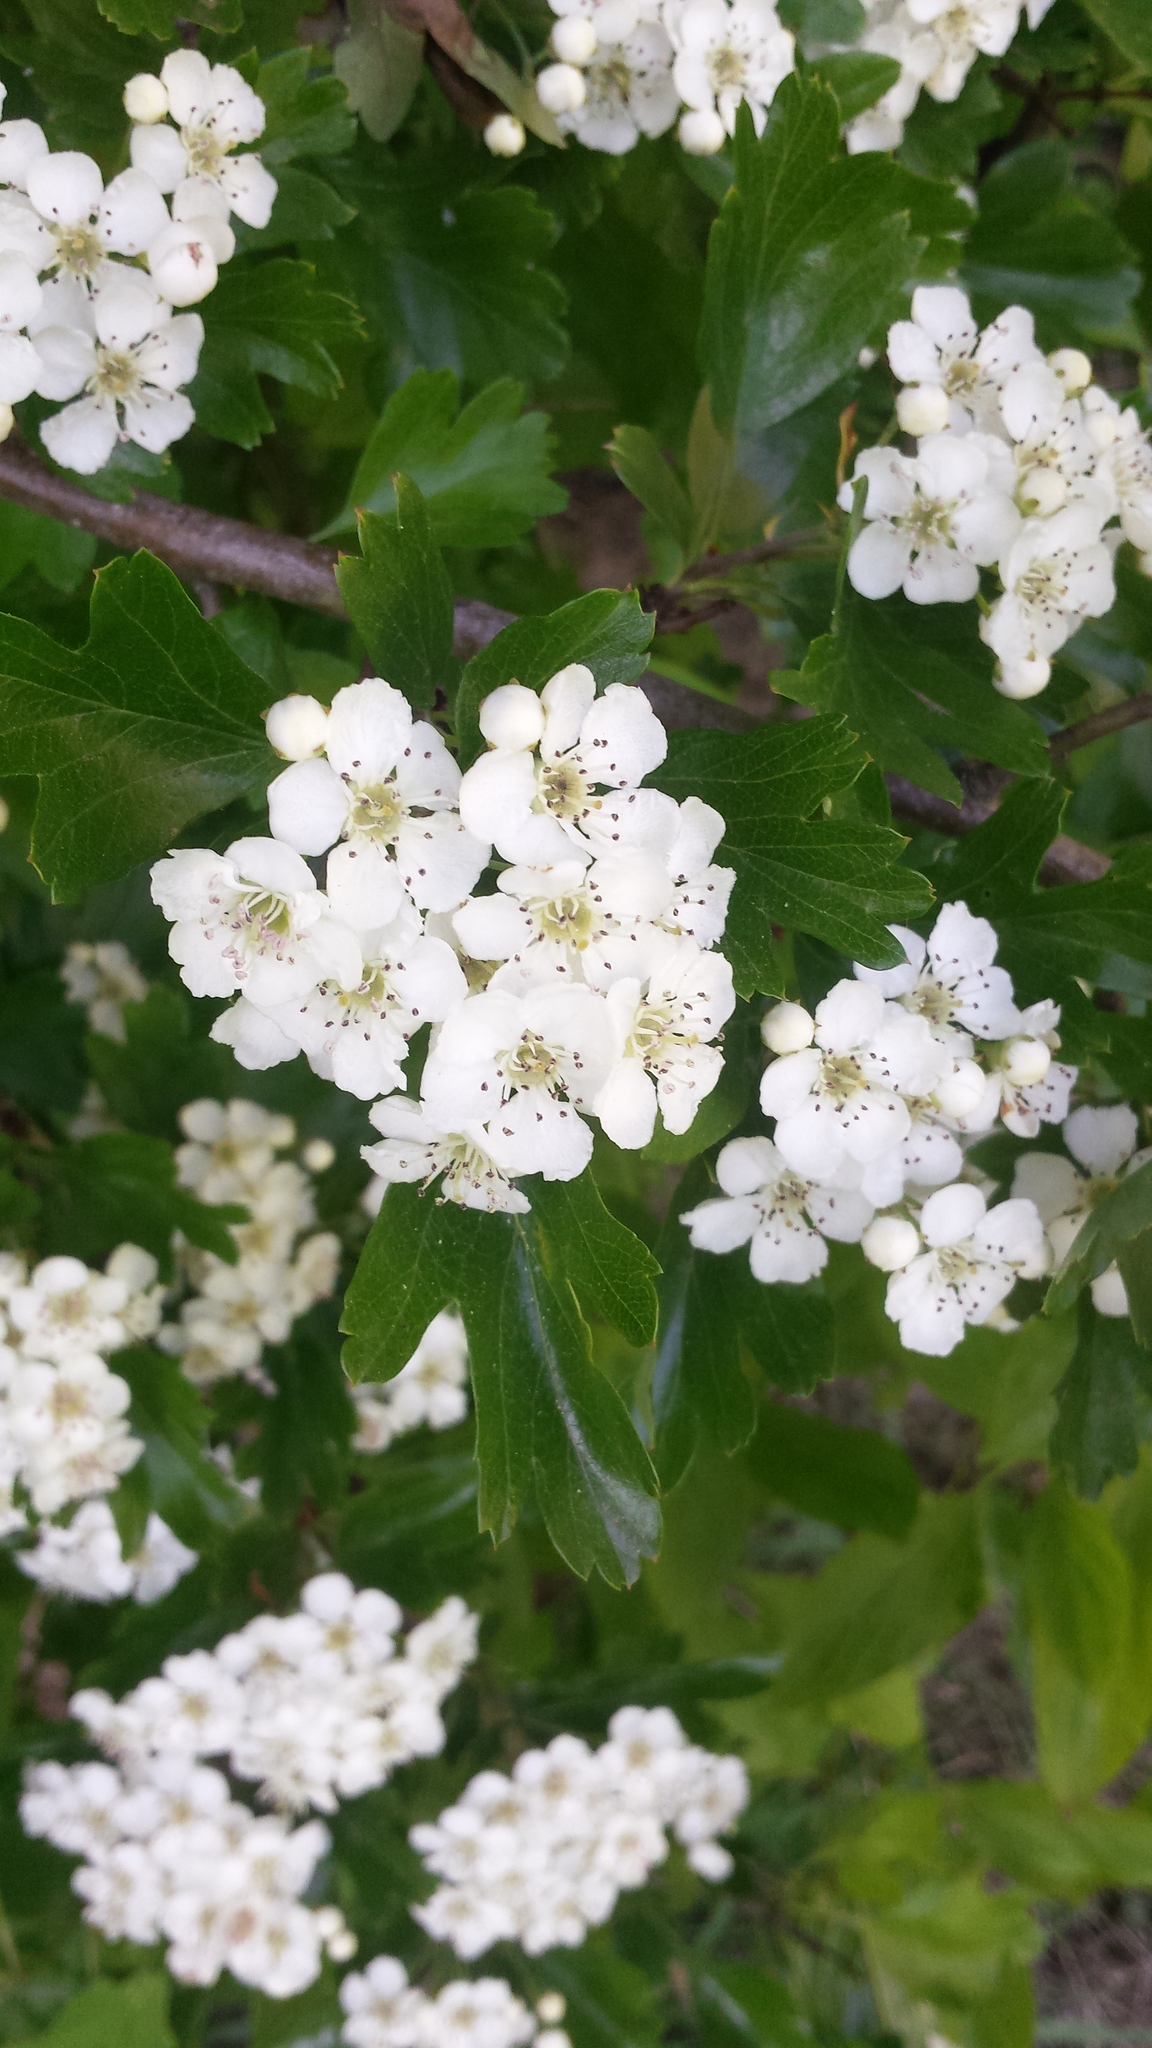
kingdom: Plantae
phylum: Tracheophyta
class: Magnoliopsida
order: Rosales
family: Rosaceae
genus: Crataegus
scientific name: Crataegus monogyna
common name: Hawthorn
